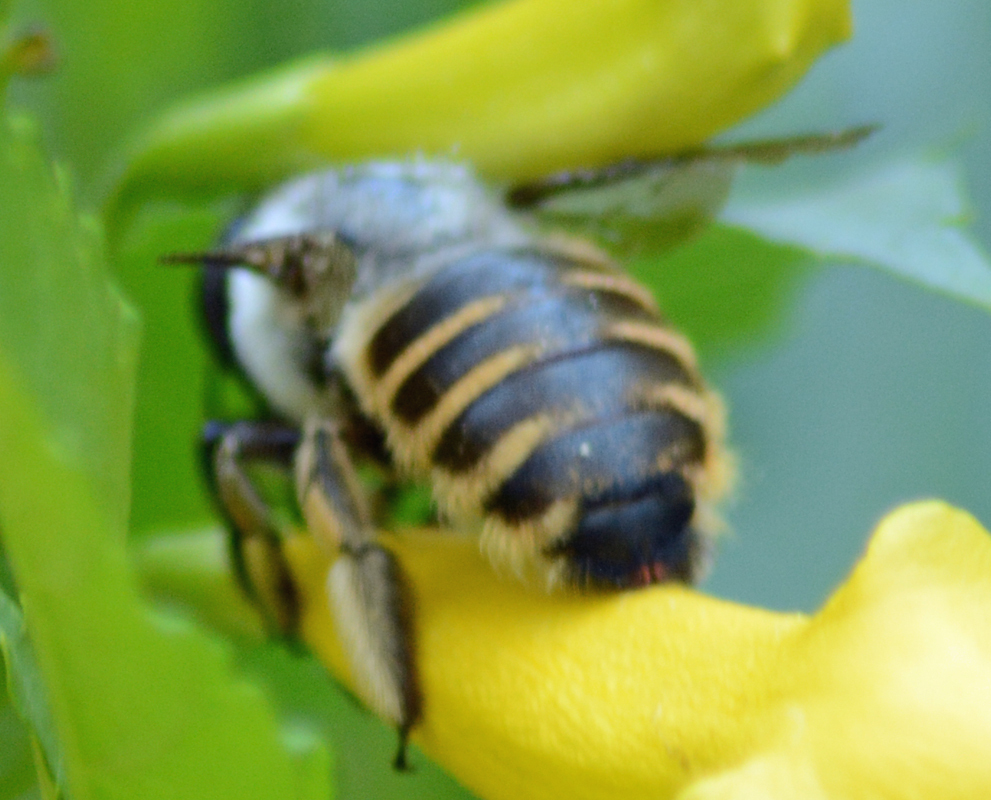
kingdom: Animalia
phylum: Arthropoda
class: Insecta
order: Hymenoptera
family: Apidae
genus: Xylocopa
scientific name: Xylocopa tabaniformis
